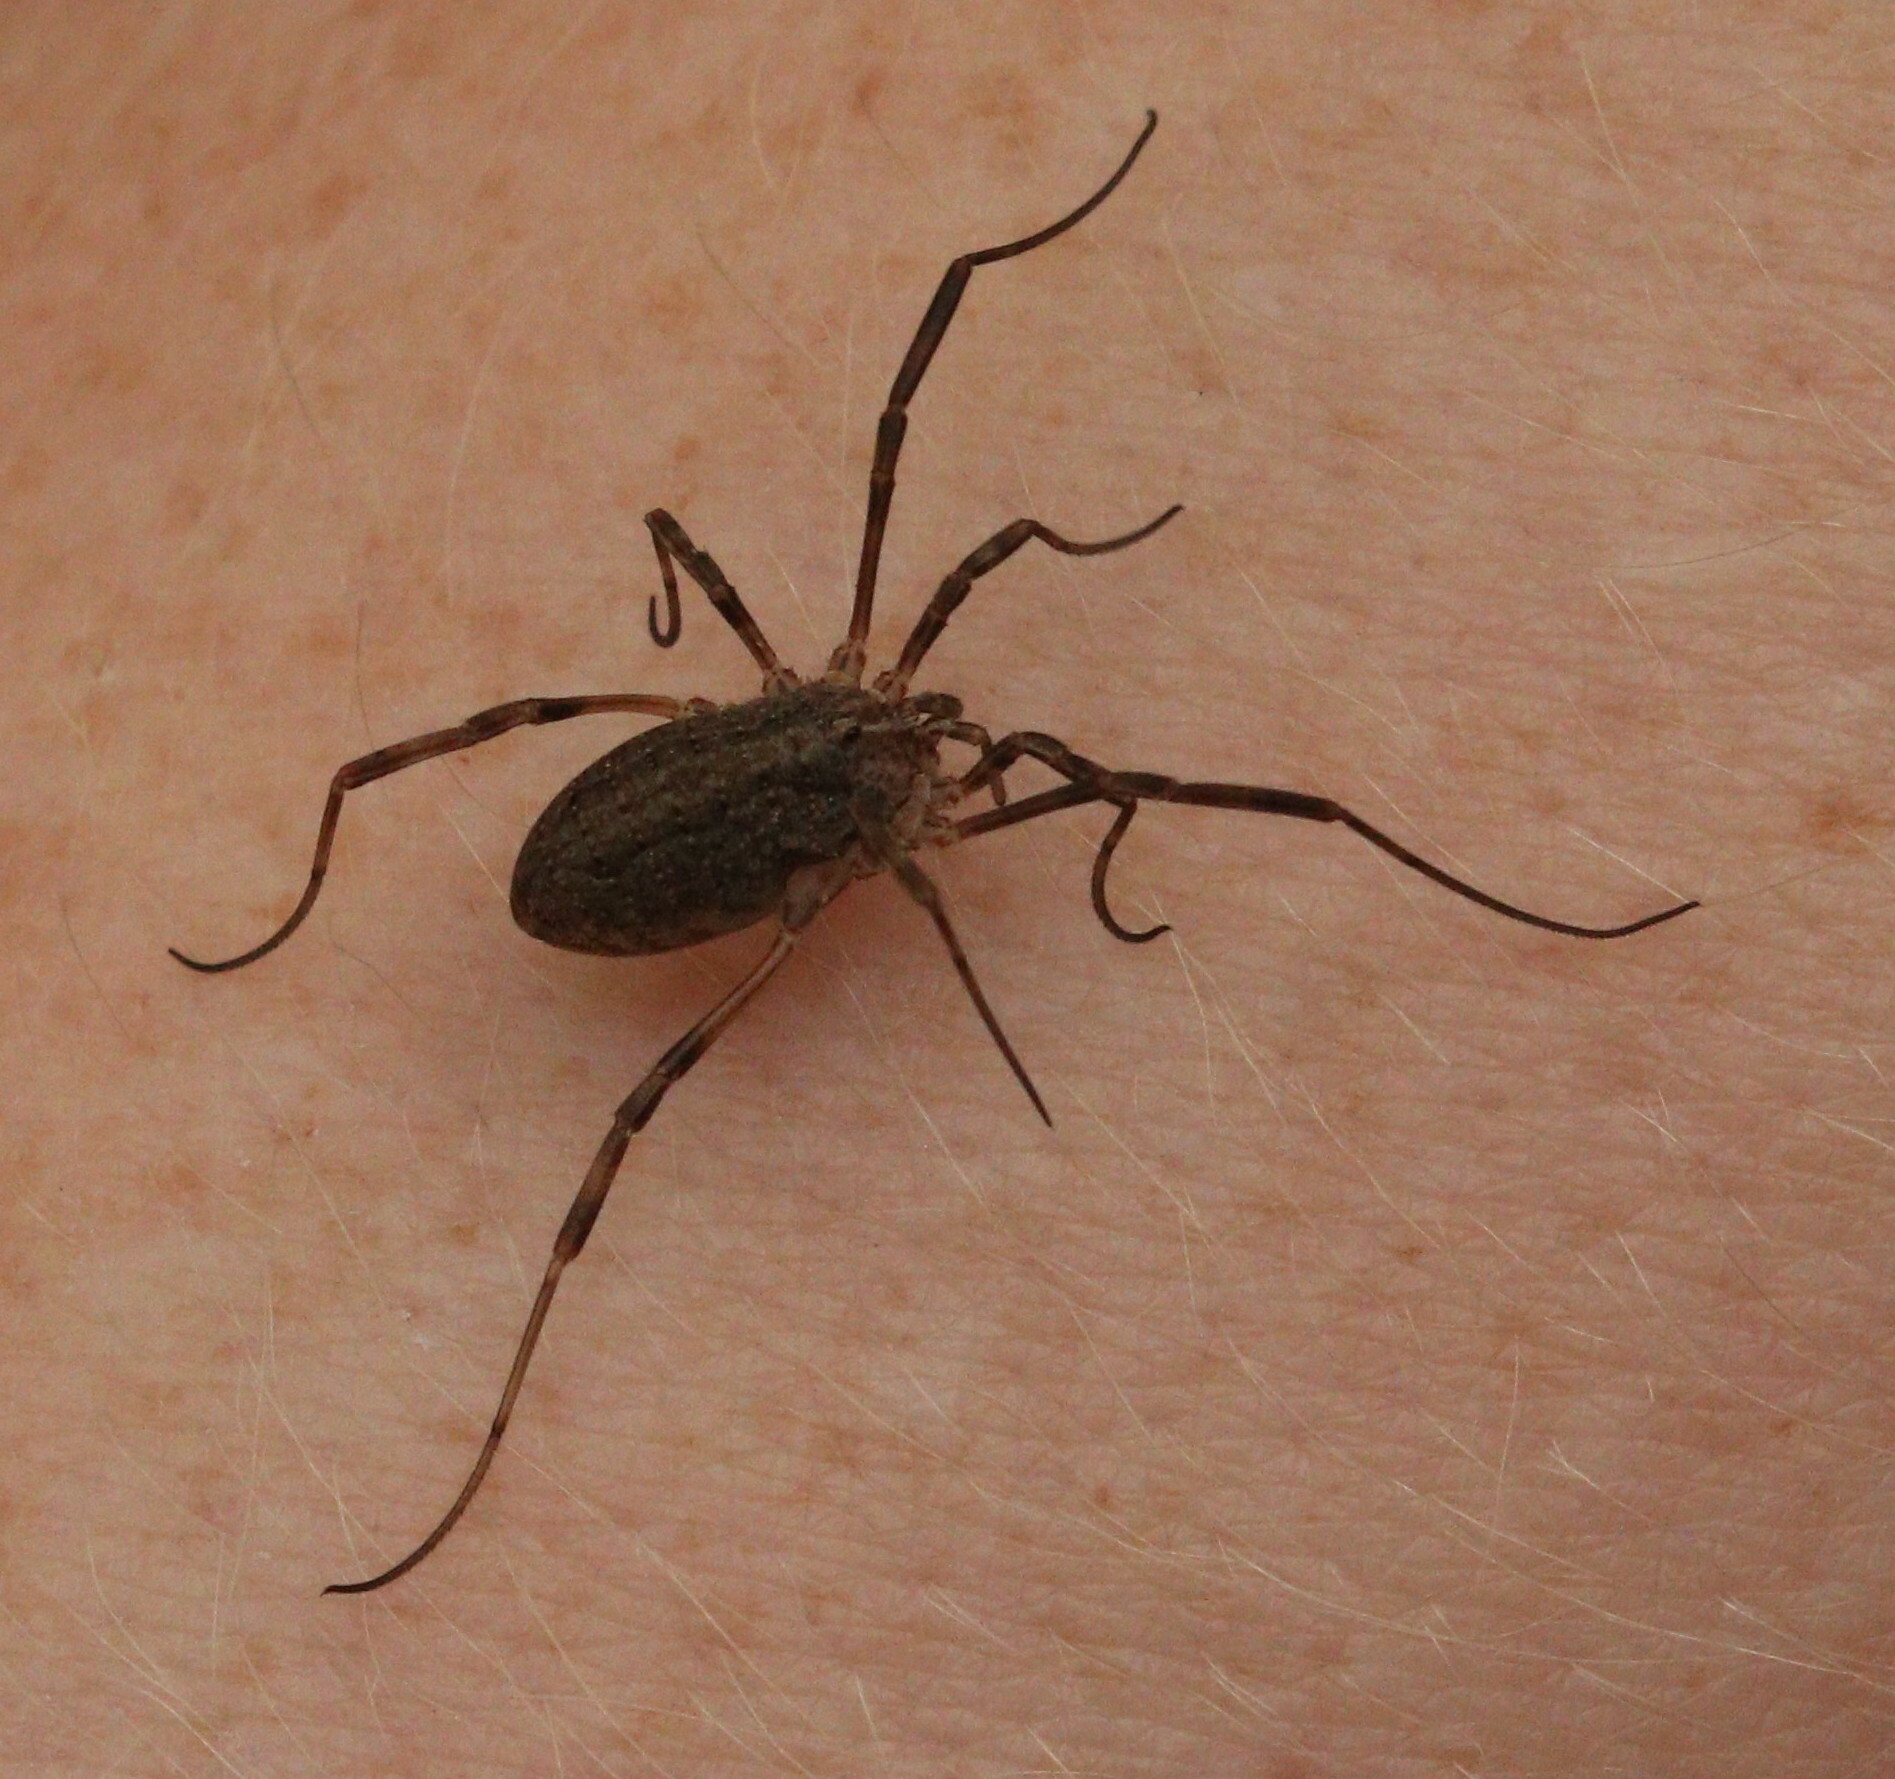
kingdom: Animalia
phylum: Arthropoda
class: Arachnida
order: Opiliones
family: Phalangiidae
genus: Odiellus
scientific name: Odiellus troguloides
